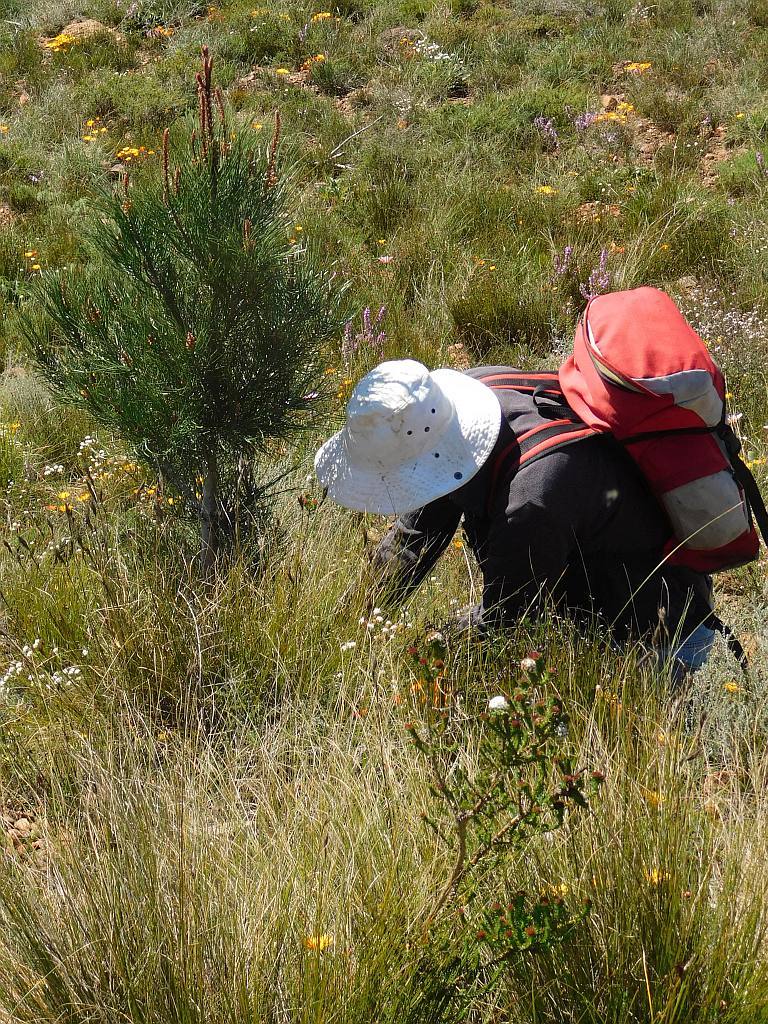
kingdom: Plantae
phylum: Tracheophyta
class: Pinopsida
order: Pinales
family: Pinaceae
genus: Pinus
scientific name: Pinus pinaster
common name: Maritime pine
